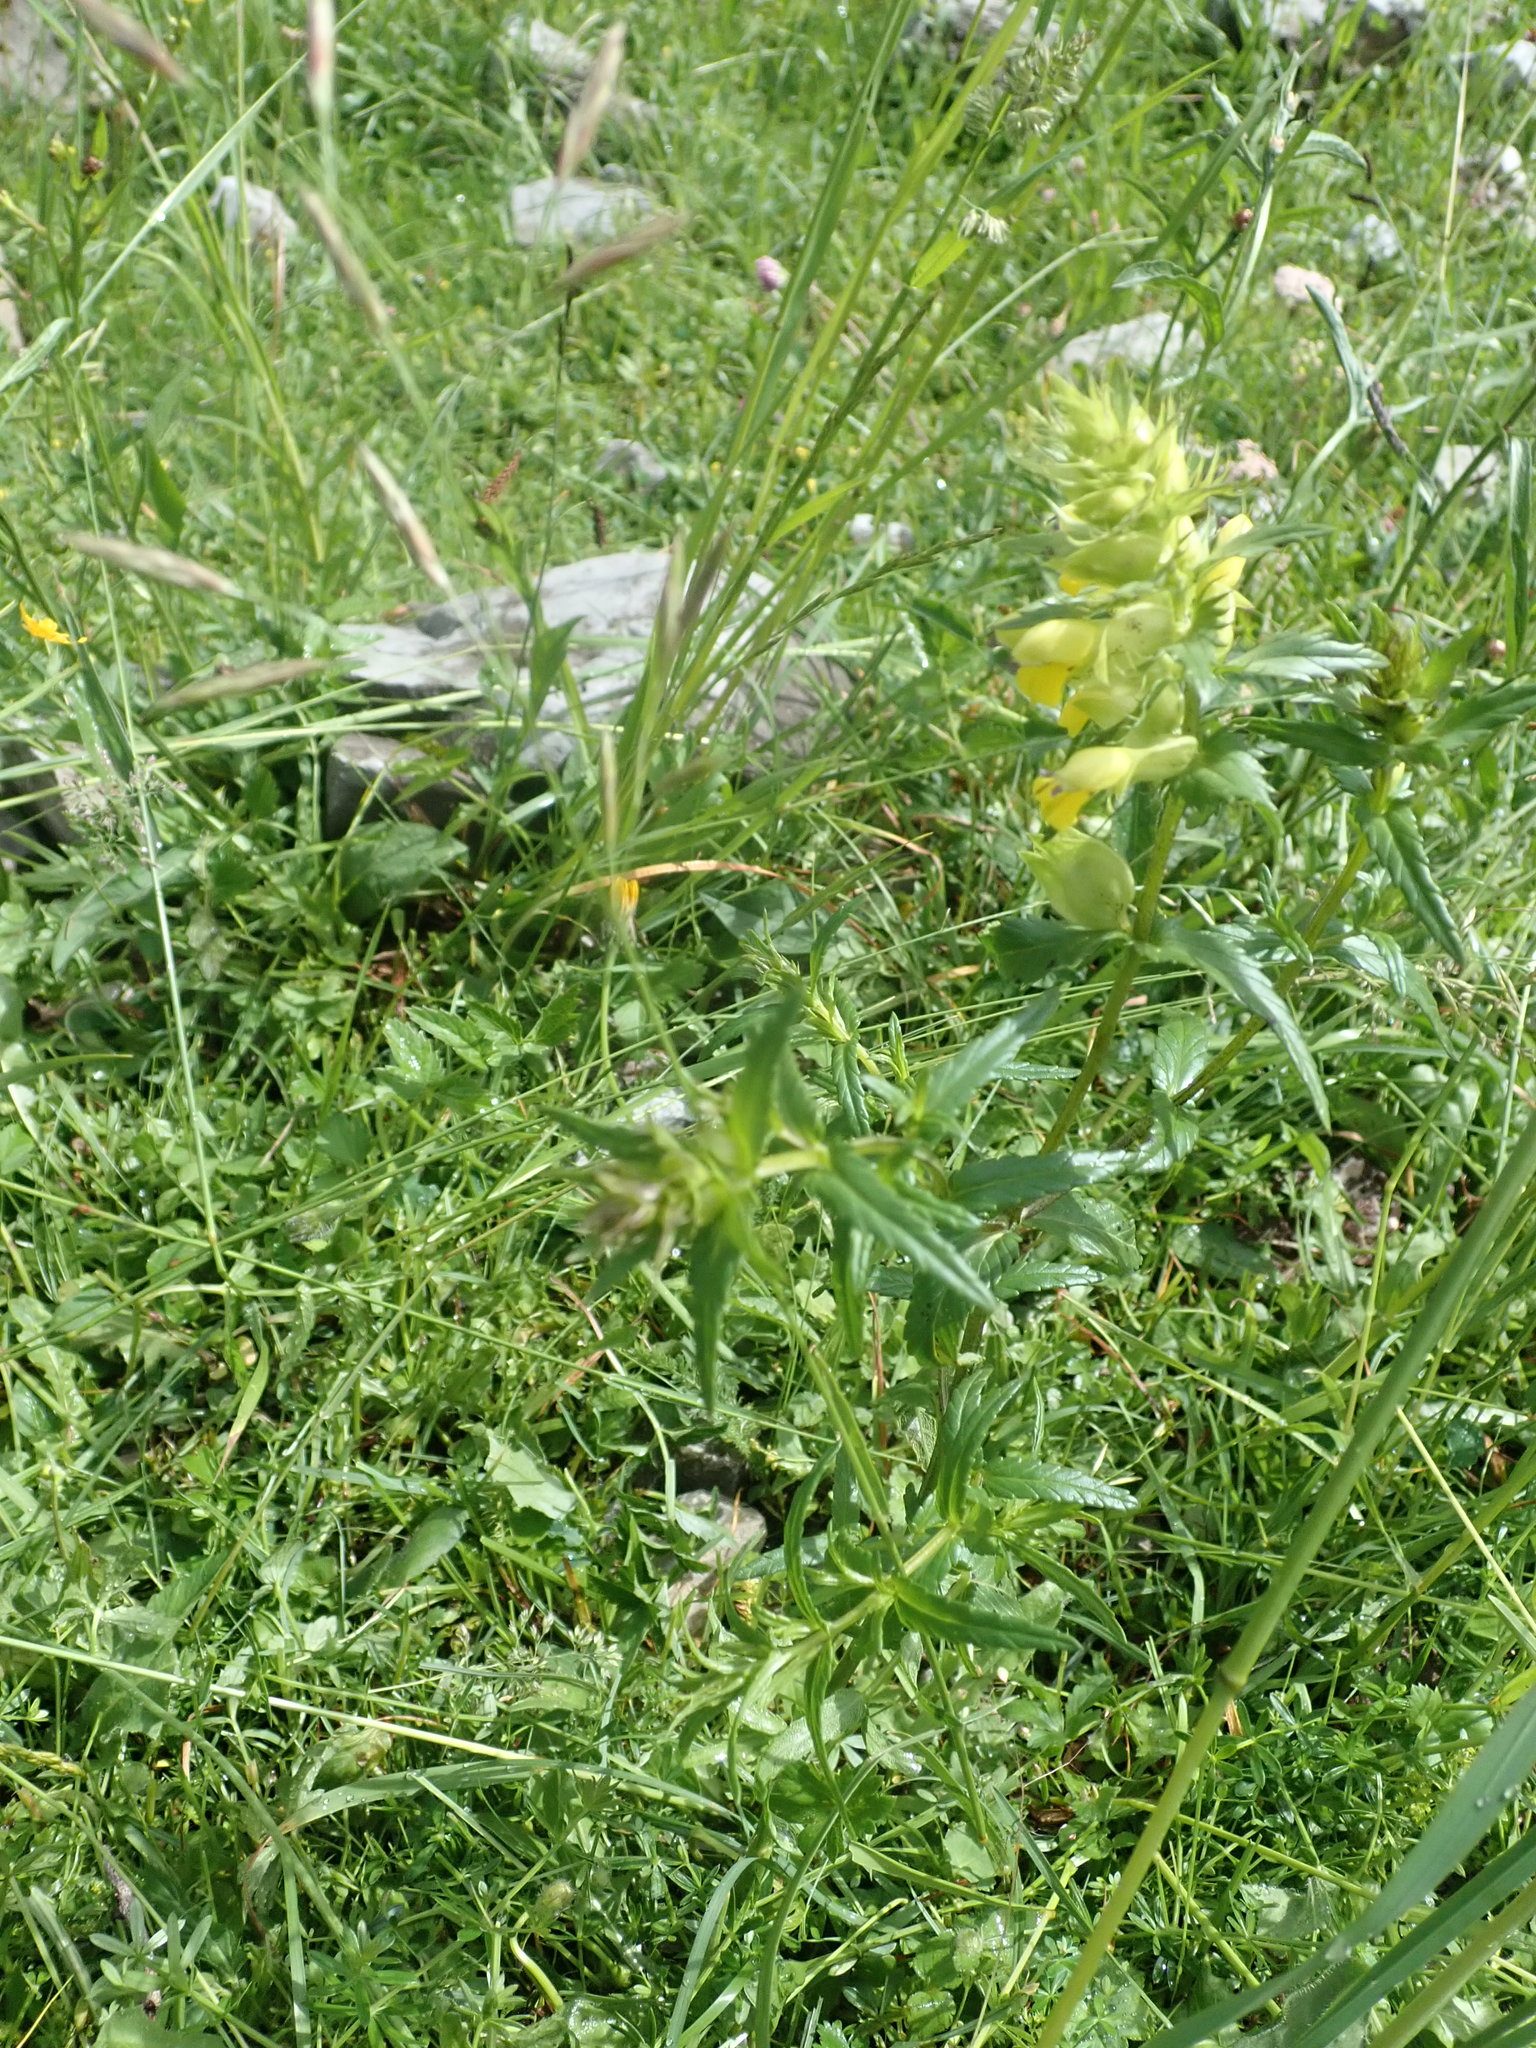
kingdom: Plantae
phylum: Tracheophyta
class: Magnoliopsida
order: Lamiales
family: Orobanchaceae
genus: Rhinanthus
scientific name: Rhinanthus glacialis
